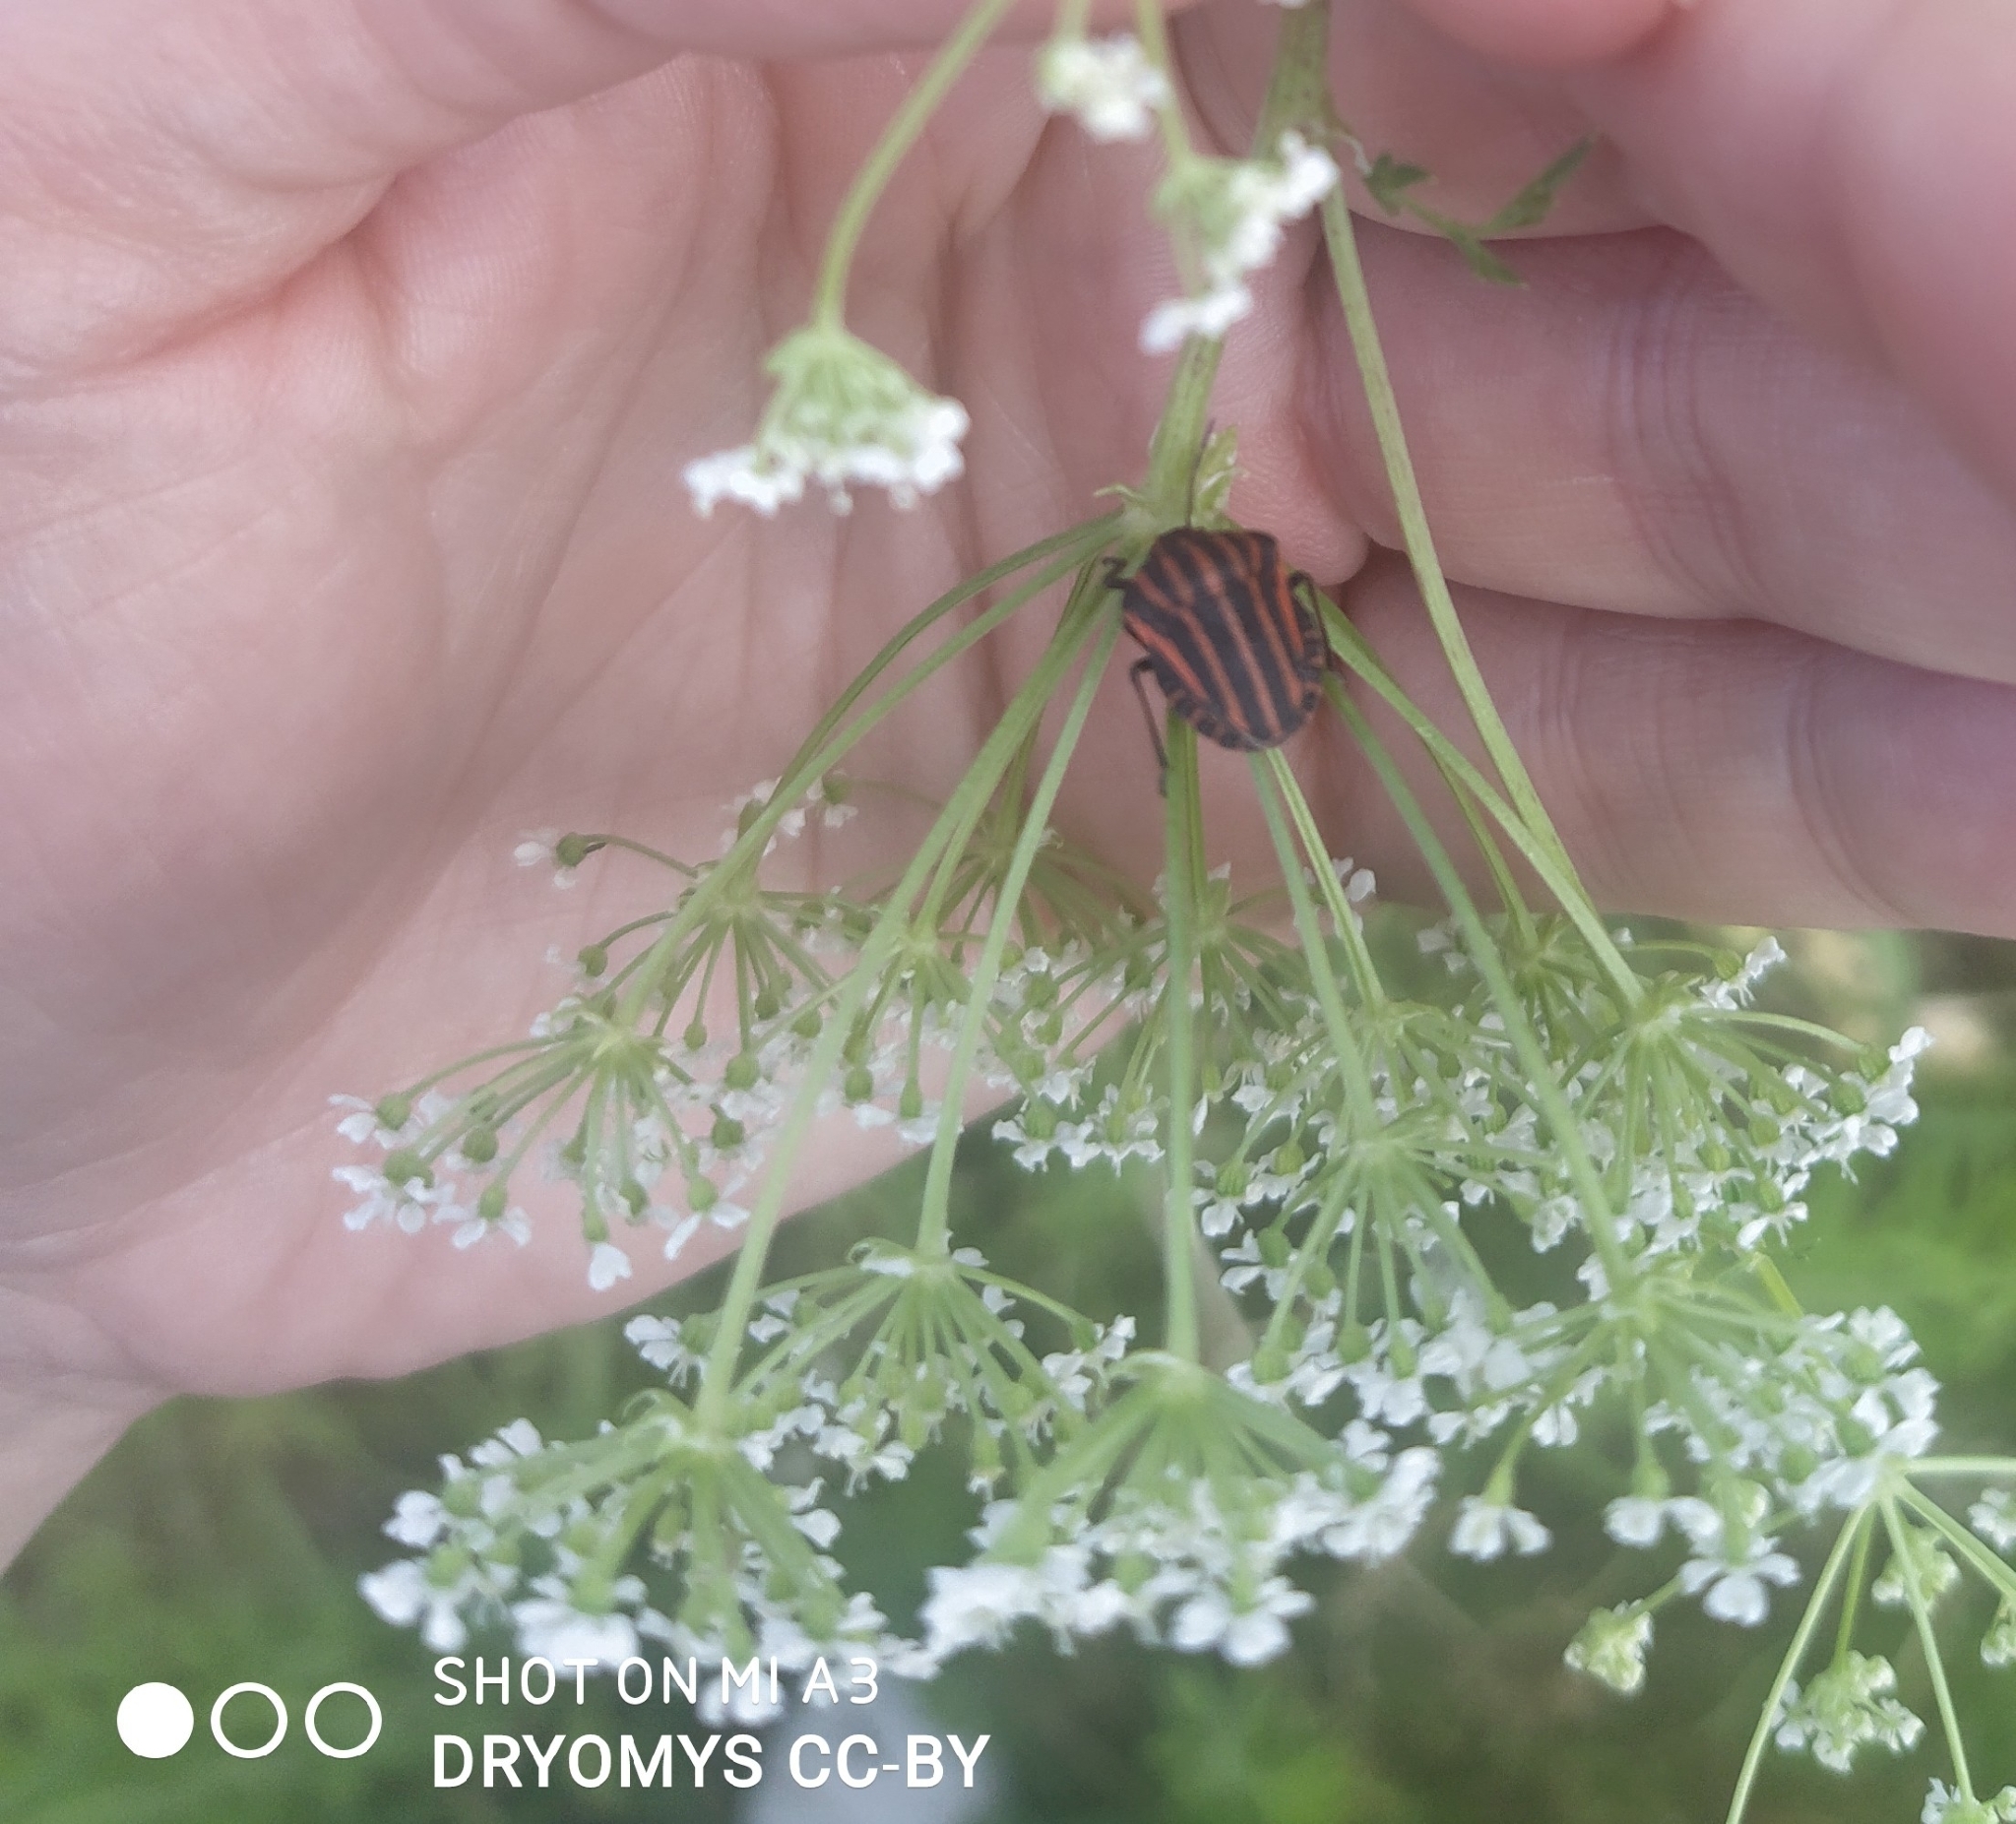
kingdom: Animalia
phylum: Arthropoda
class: Insecta
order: Hemiptera
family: Pentatomidae
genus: Graphosoma
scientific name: Graphosoma italicum
